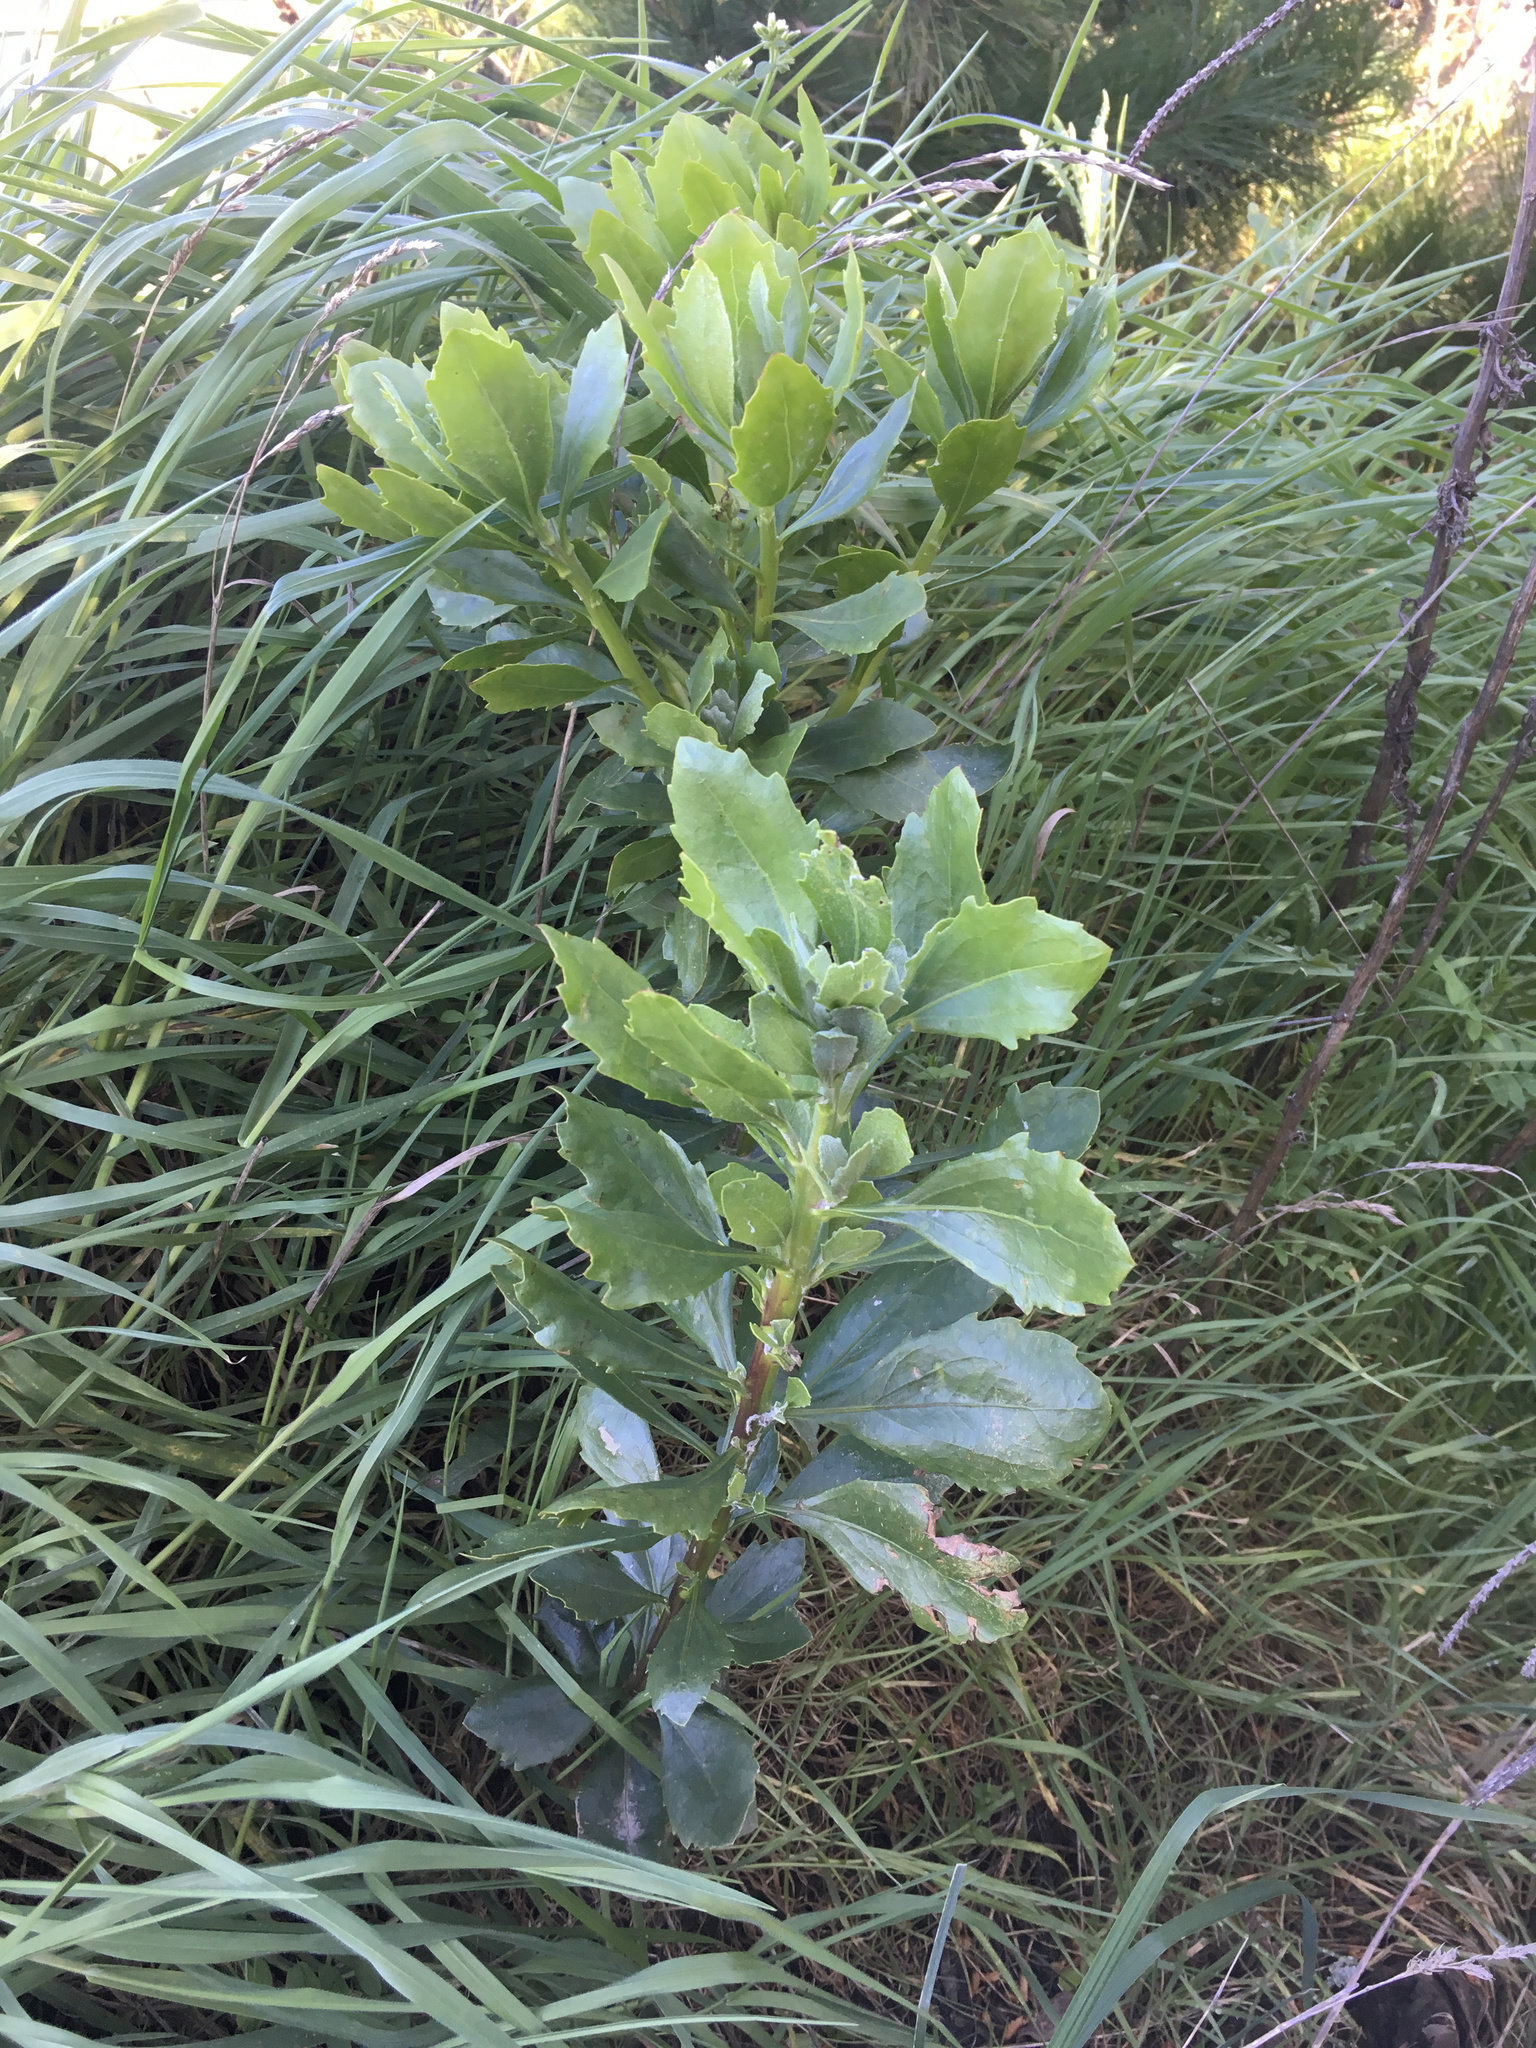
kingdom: Plantae
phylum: Tracheophyta
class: Magnoliopsida
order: Asterales
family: Asteraceae
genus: Osteospermum
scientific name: Osteospermum moniliferum
